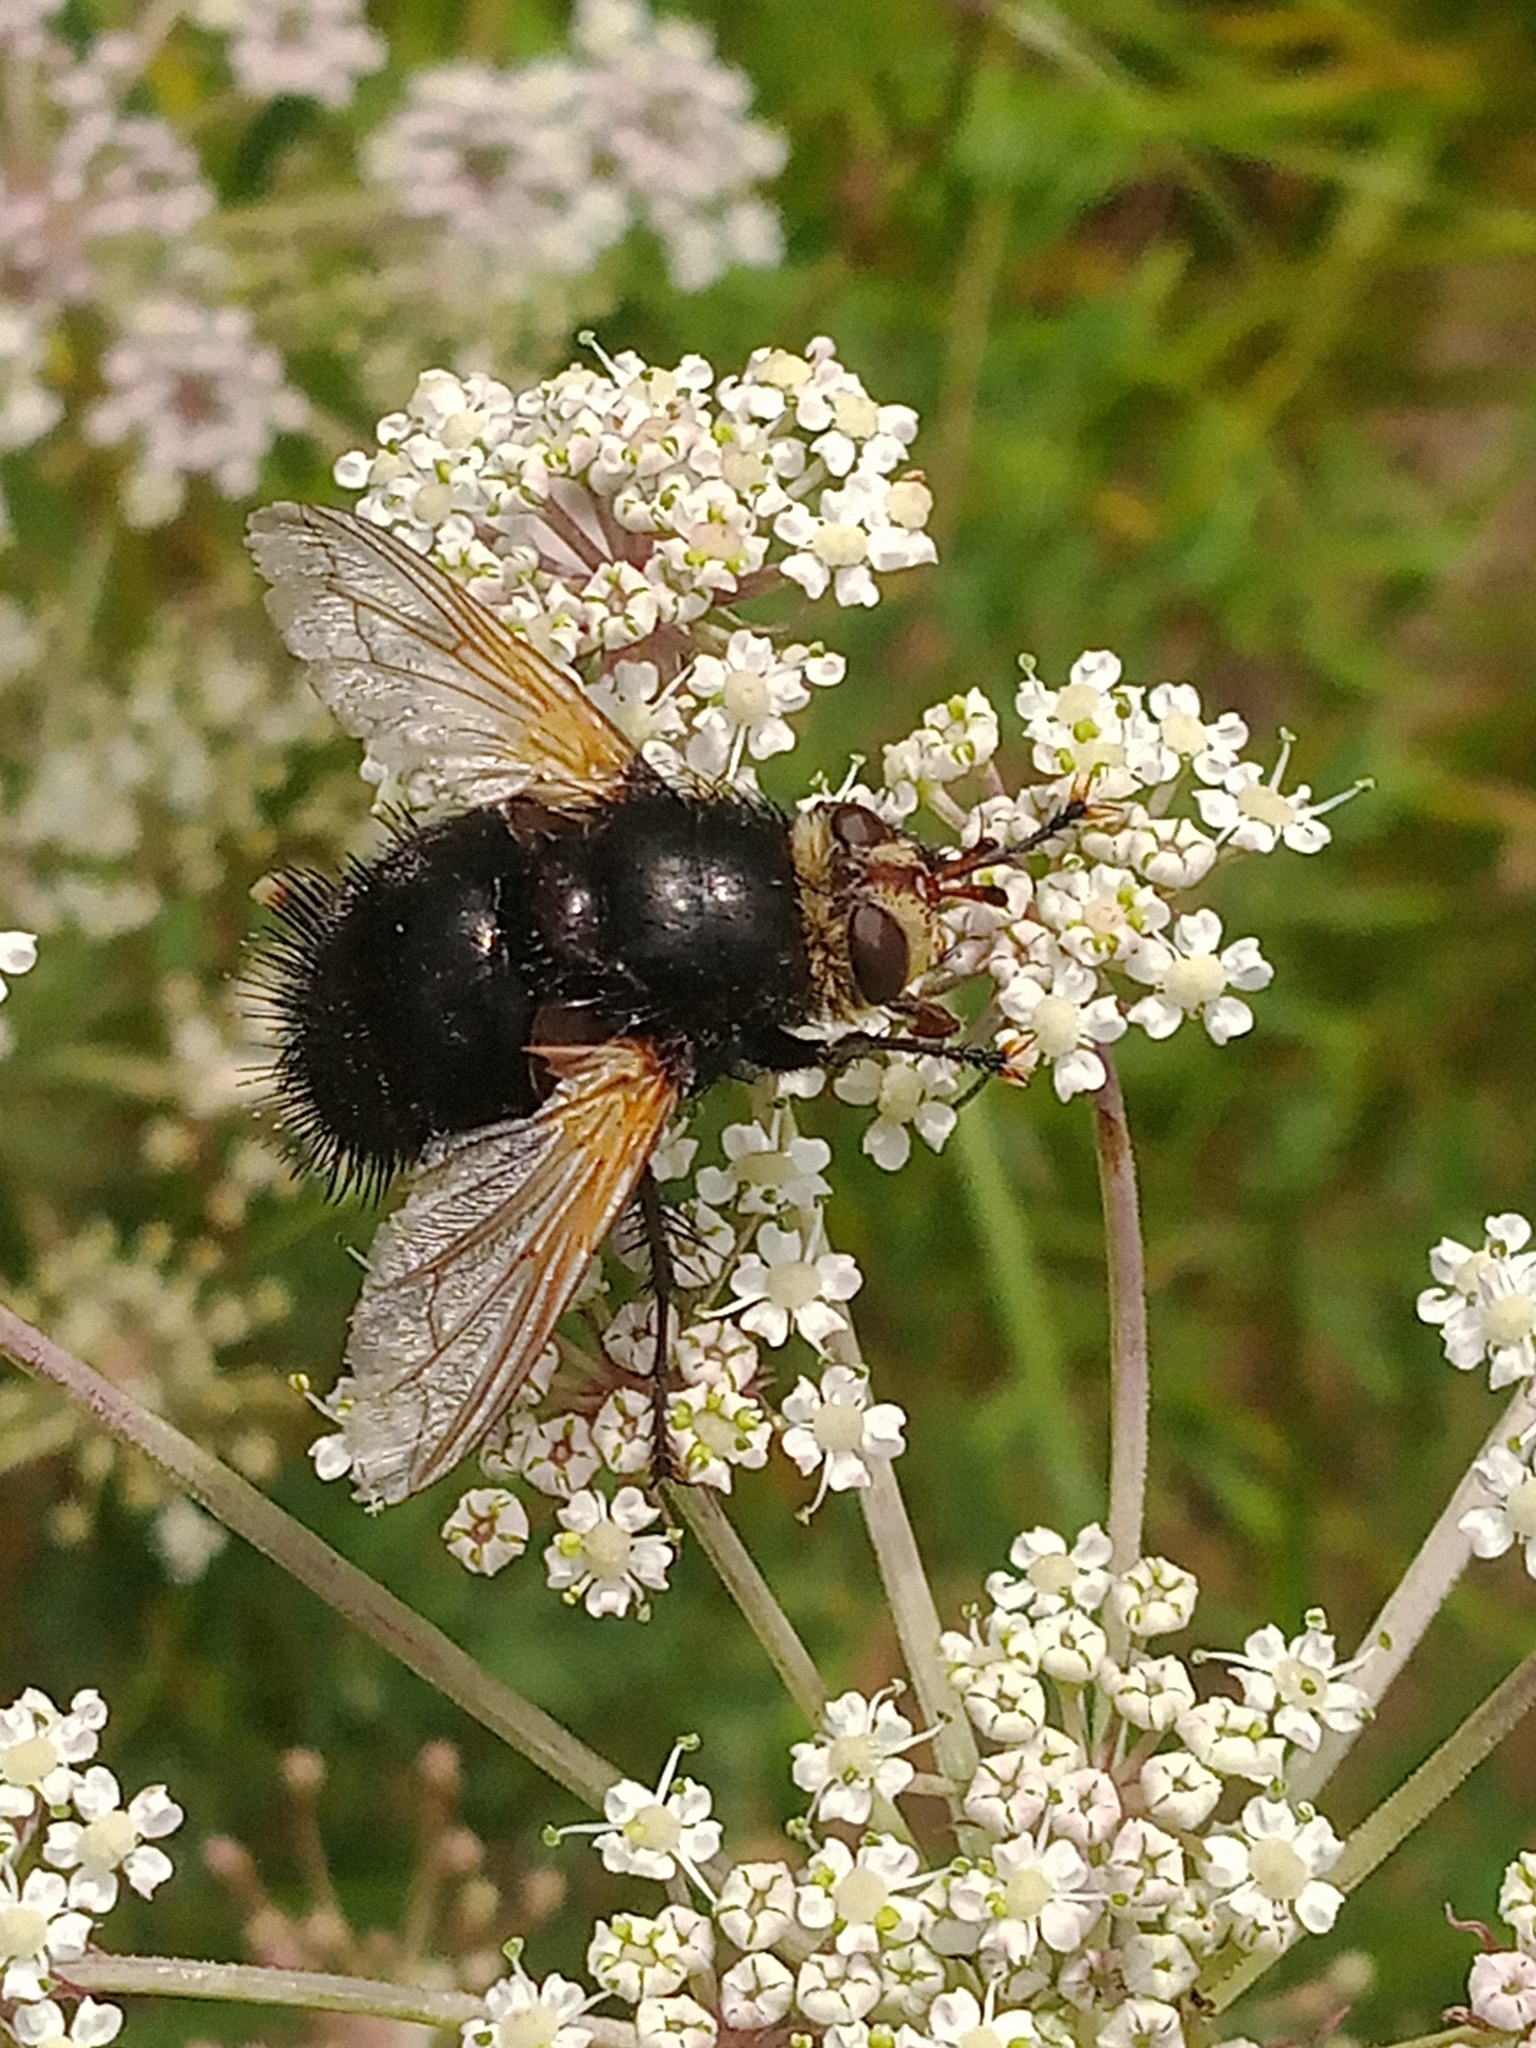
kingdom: Animalia
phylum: Arthropoda
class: Insecta
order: Diptera
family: Tachinidae
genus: Tachina
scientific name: Tachina grossa
